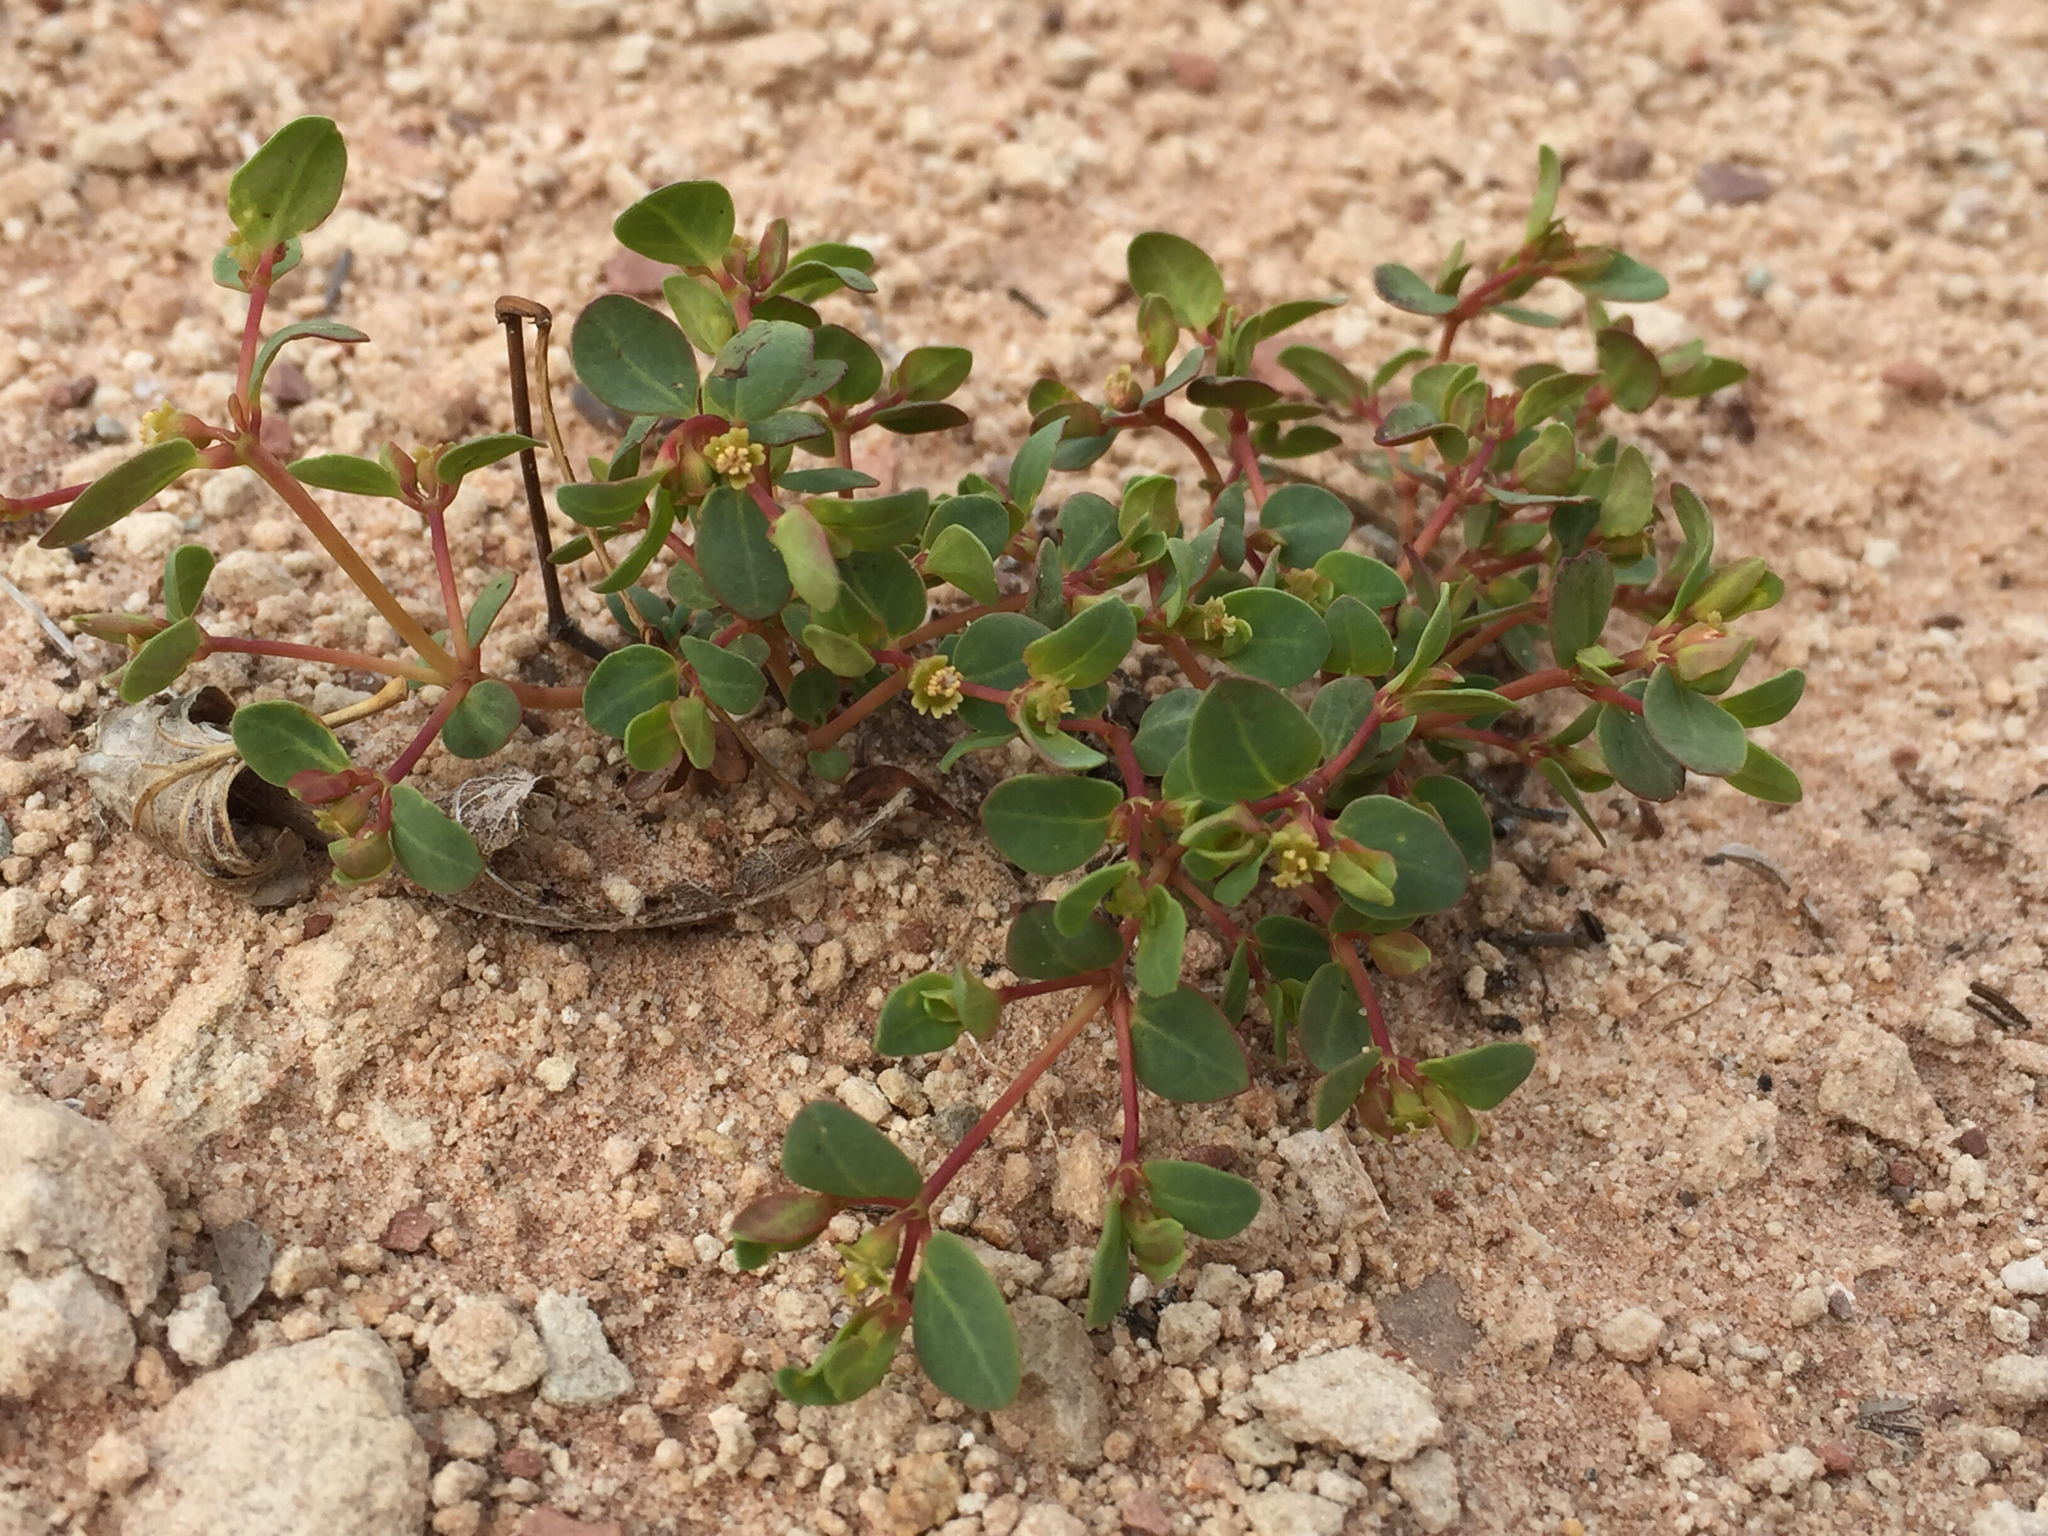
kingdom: Plantae
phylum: Tracheophyta
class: Magnoliopsida
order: Malpighiales
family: Euphorbiaceae
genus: Euphorbia
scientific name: Euphorbia fendleri
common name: Fendler's euphorbia
